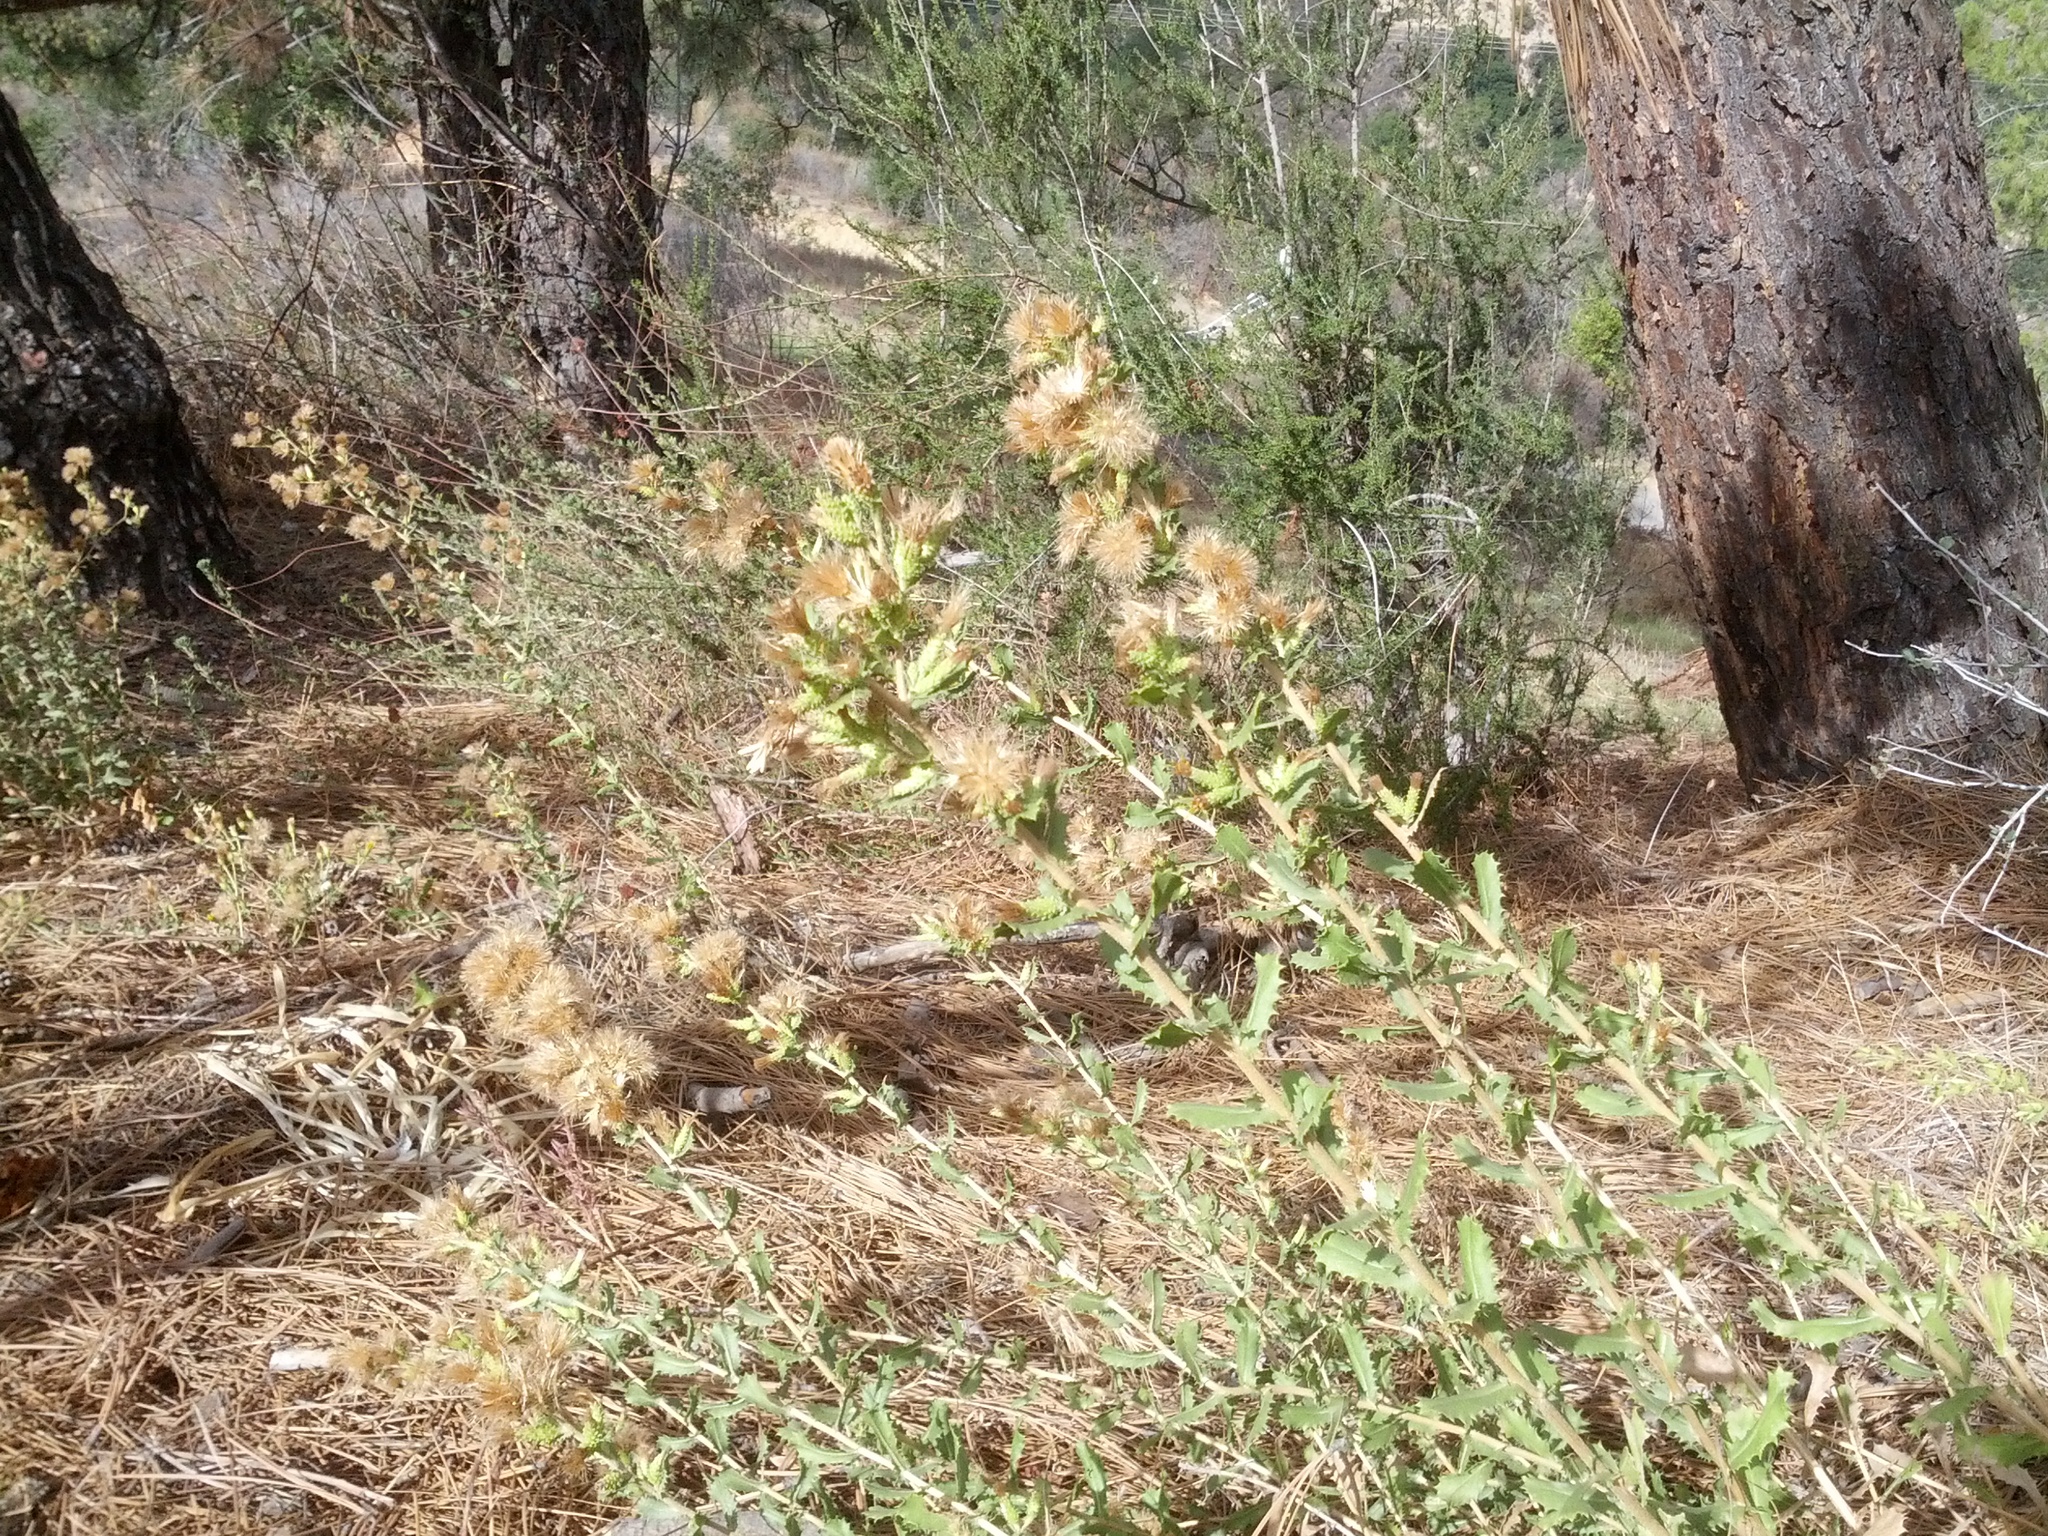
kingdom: Plantae
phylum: Tracheophyta
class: Magnoliopsida
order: Asterales
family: Asteraceae
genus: Hazardia
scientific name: Hazardia squarrosa
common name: Saw-tooth goldenbush
